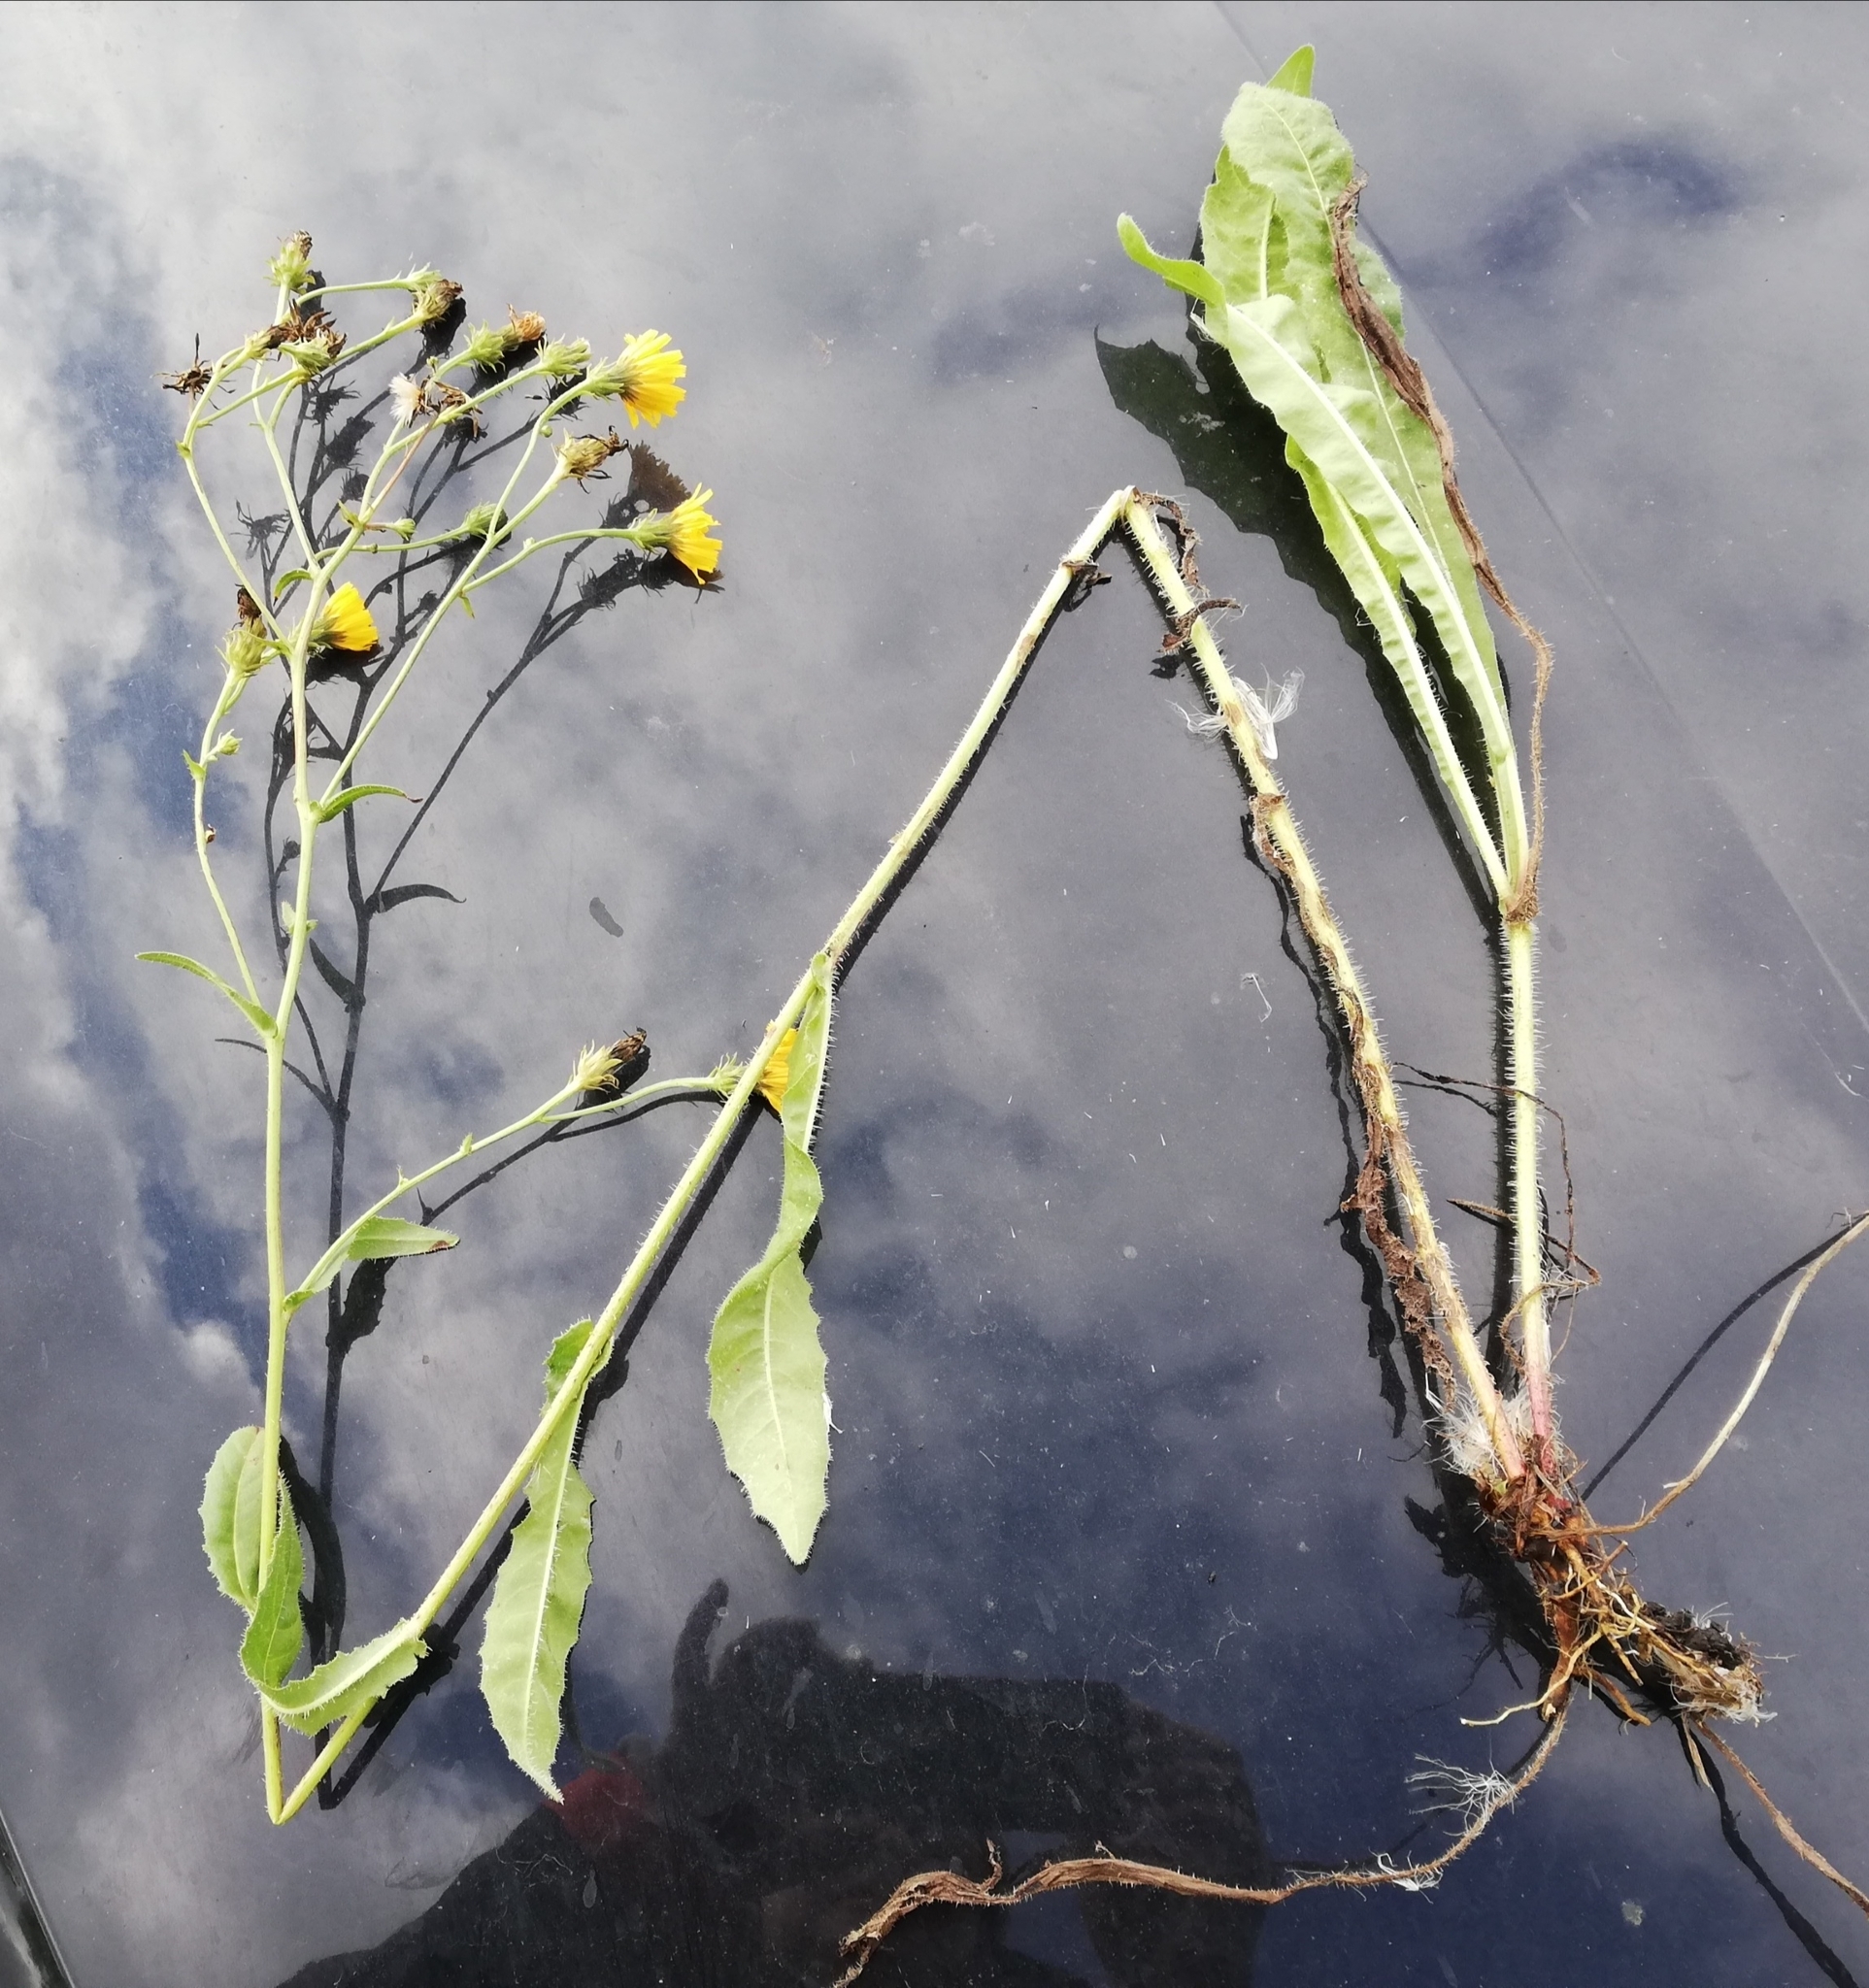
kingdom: Plantae
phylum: Tracheophyta
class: Magnoliopsida
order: Asterales
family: Asteraceae
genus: Picris
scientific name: Picris hieracioides
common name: Hawkweed oxtongue
